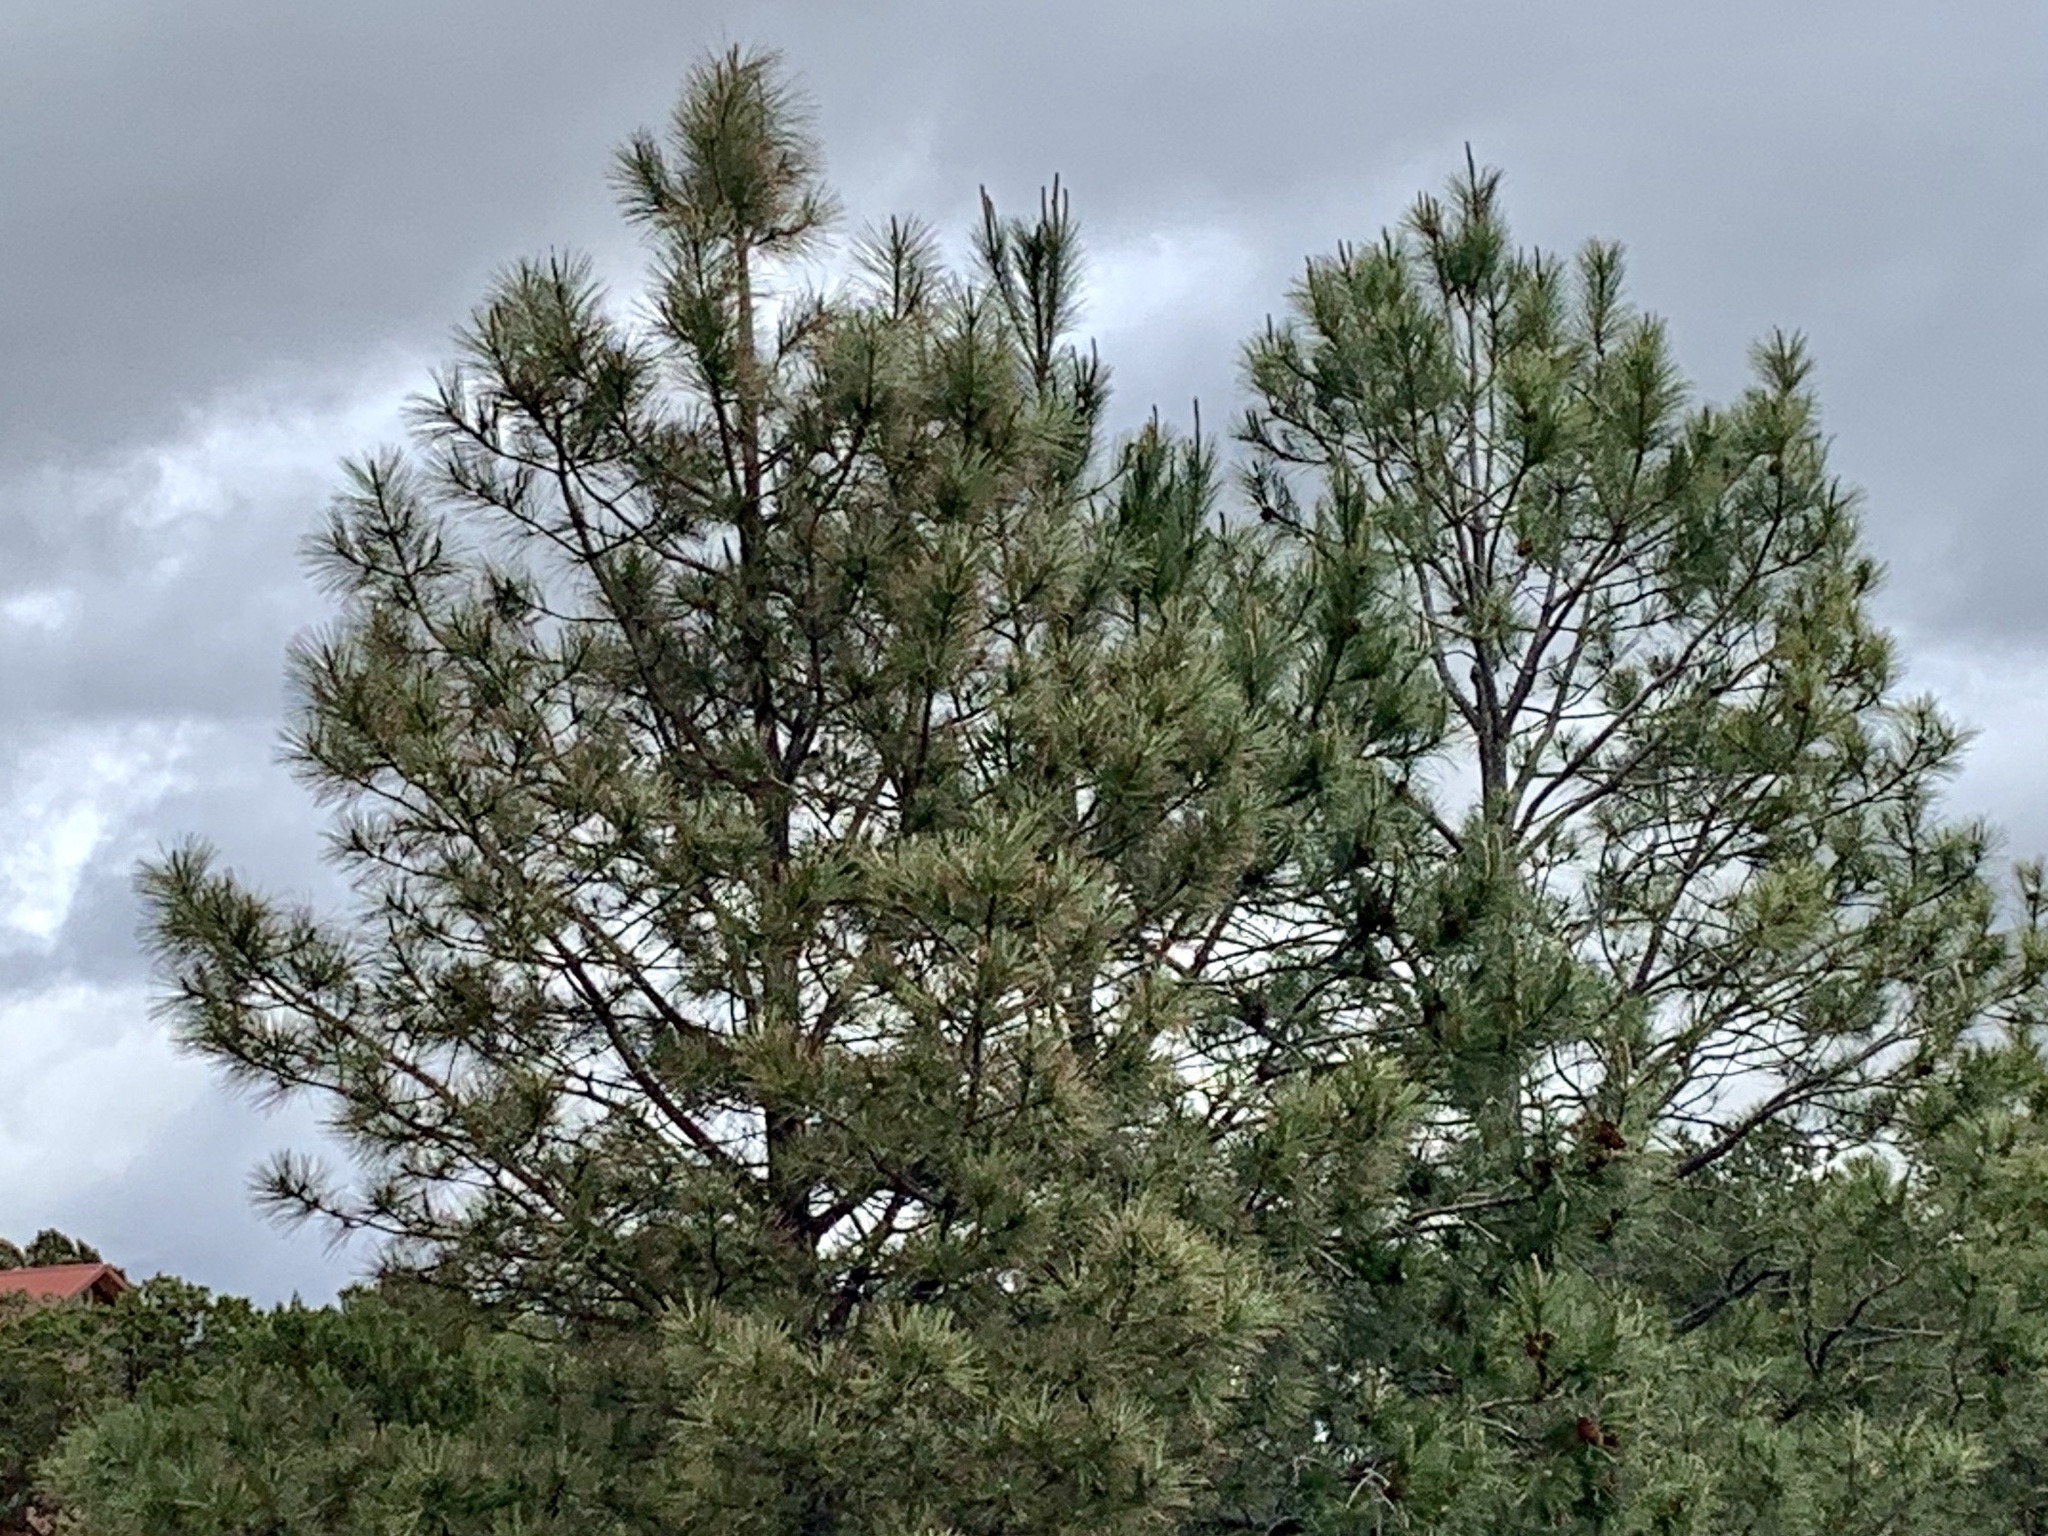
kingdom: Plantae
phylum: Tracheophyta
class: Pinopsida
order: Pinales
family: Pinaceae
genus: Pinus
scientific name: Pinus ponderosa
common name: Western yellow-pine
